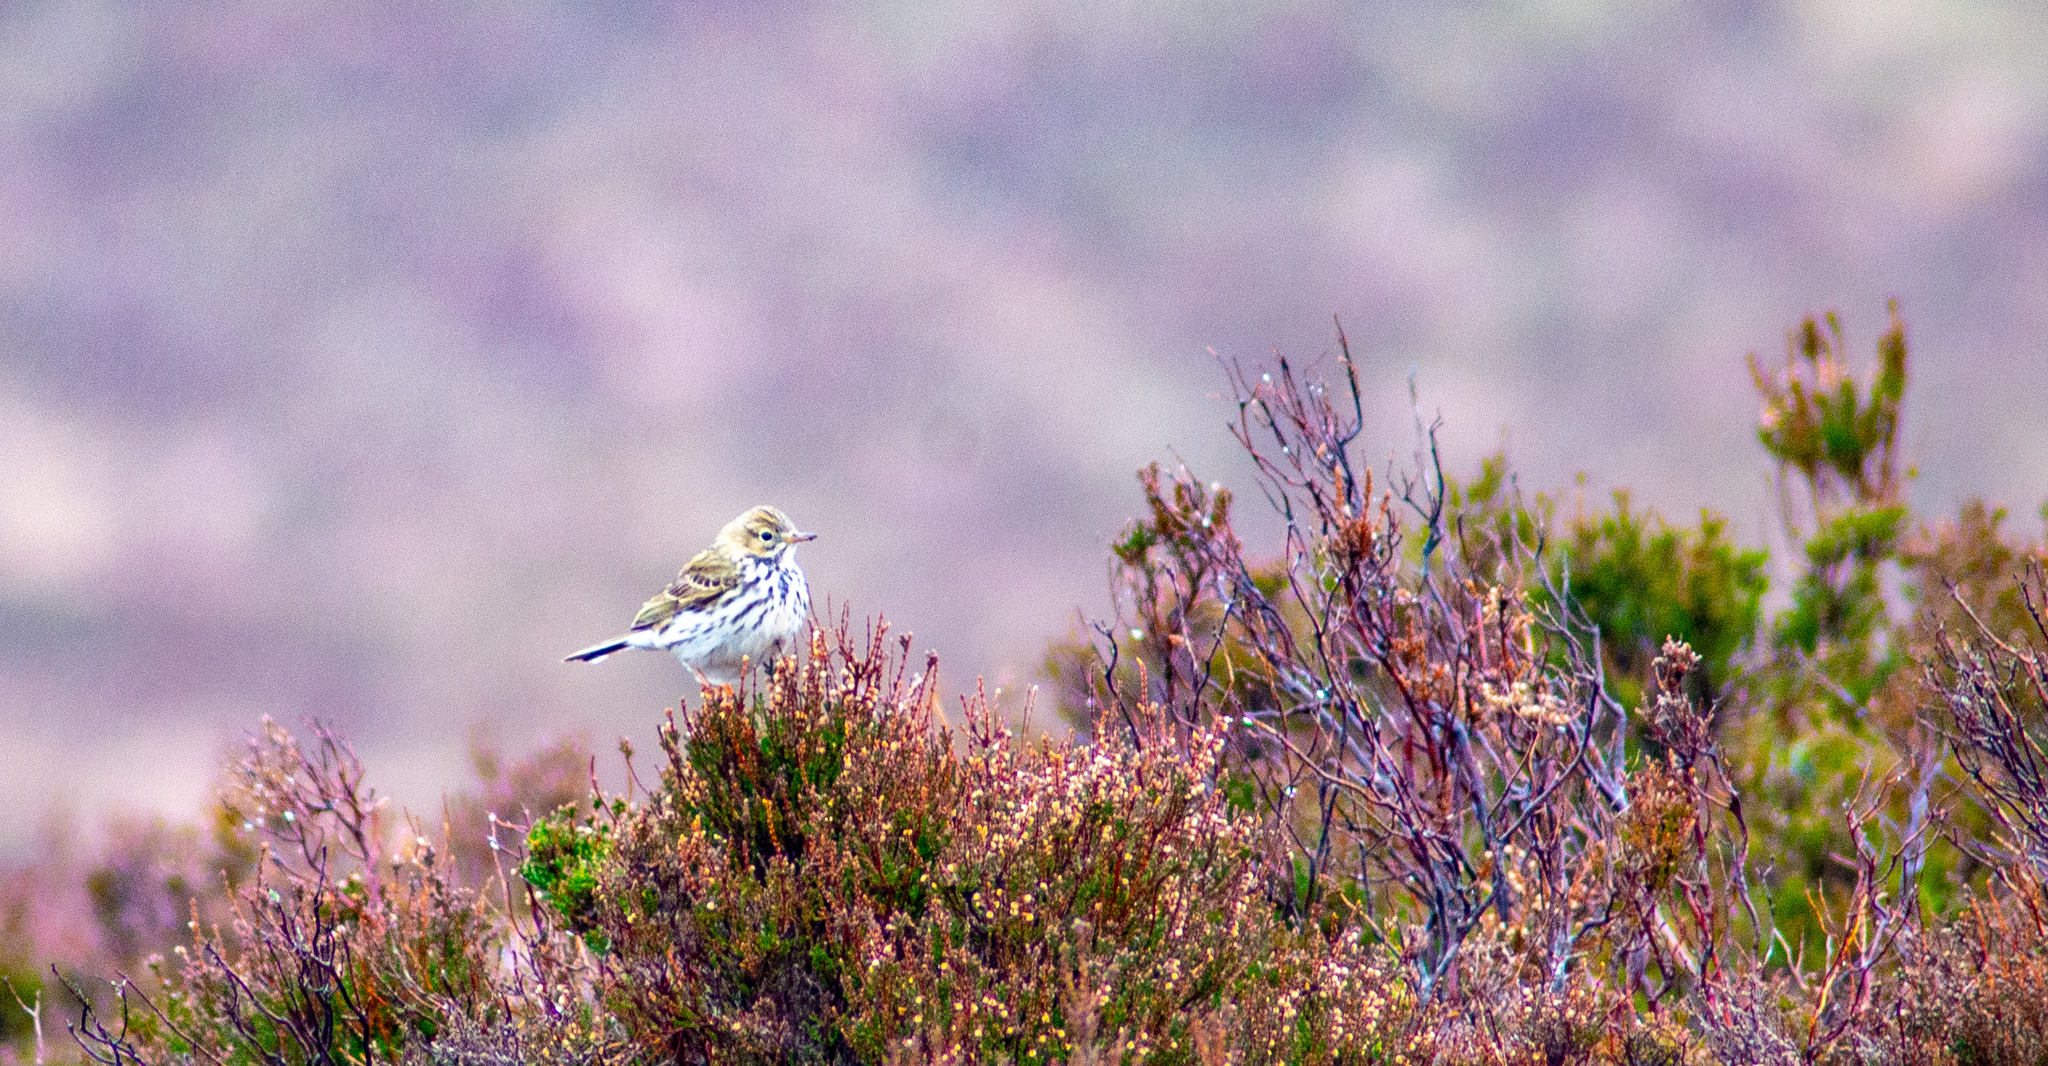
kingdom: Animalia
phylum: Chordata
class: Aves
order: Passeriformes
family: Motacillidae
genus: Anthus
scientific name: Anthus pratensis
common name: Meadow pipit
